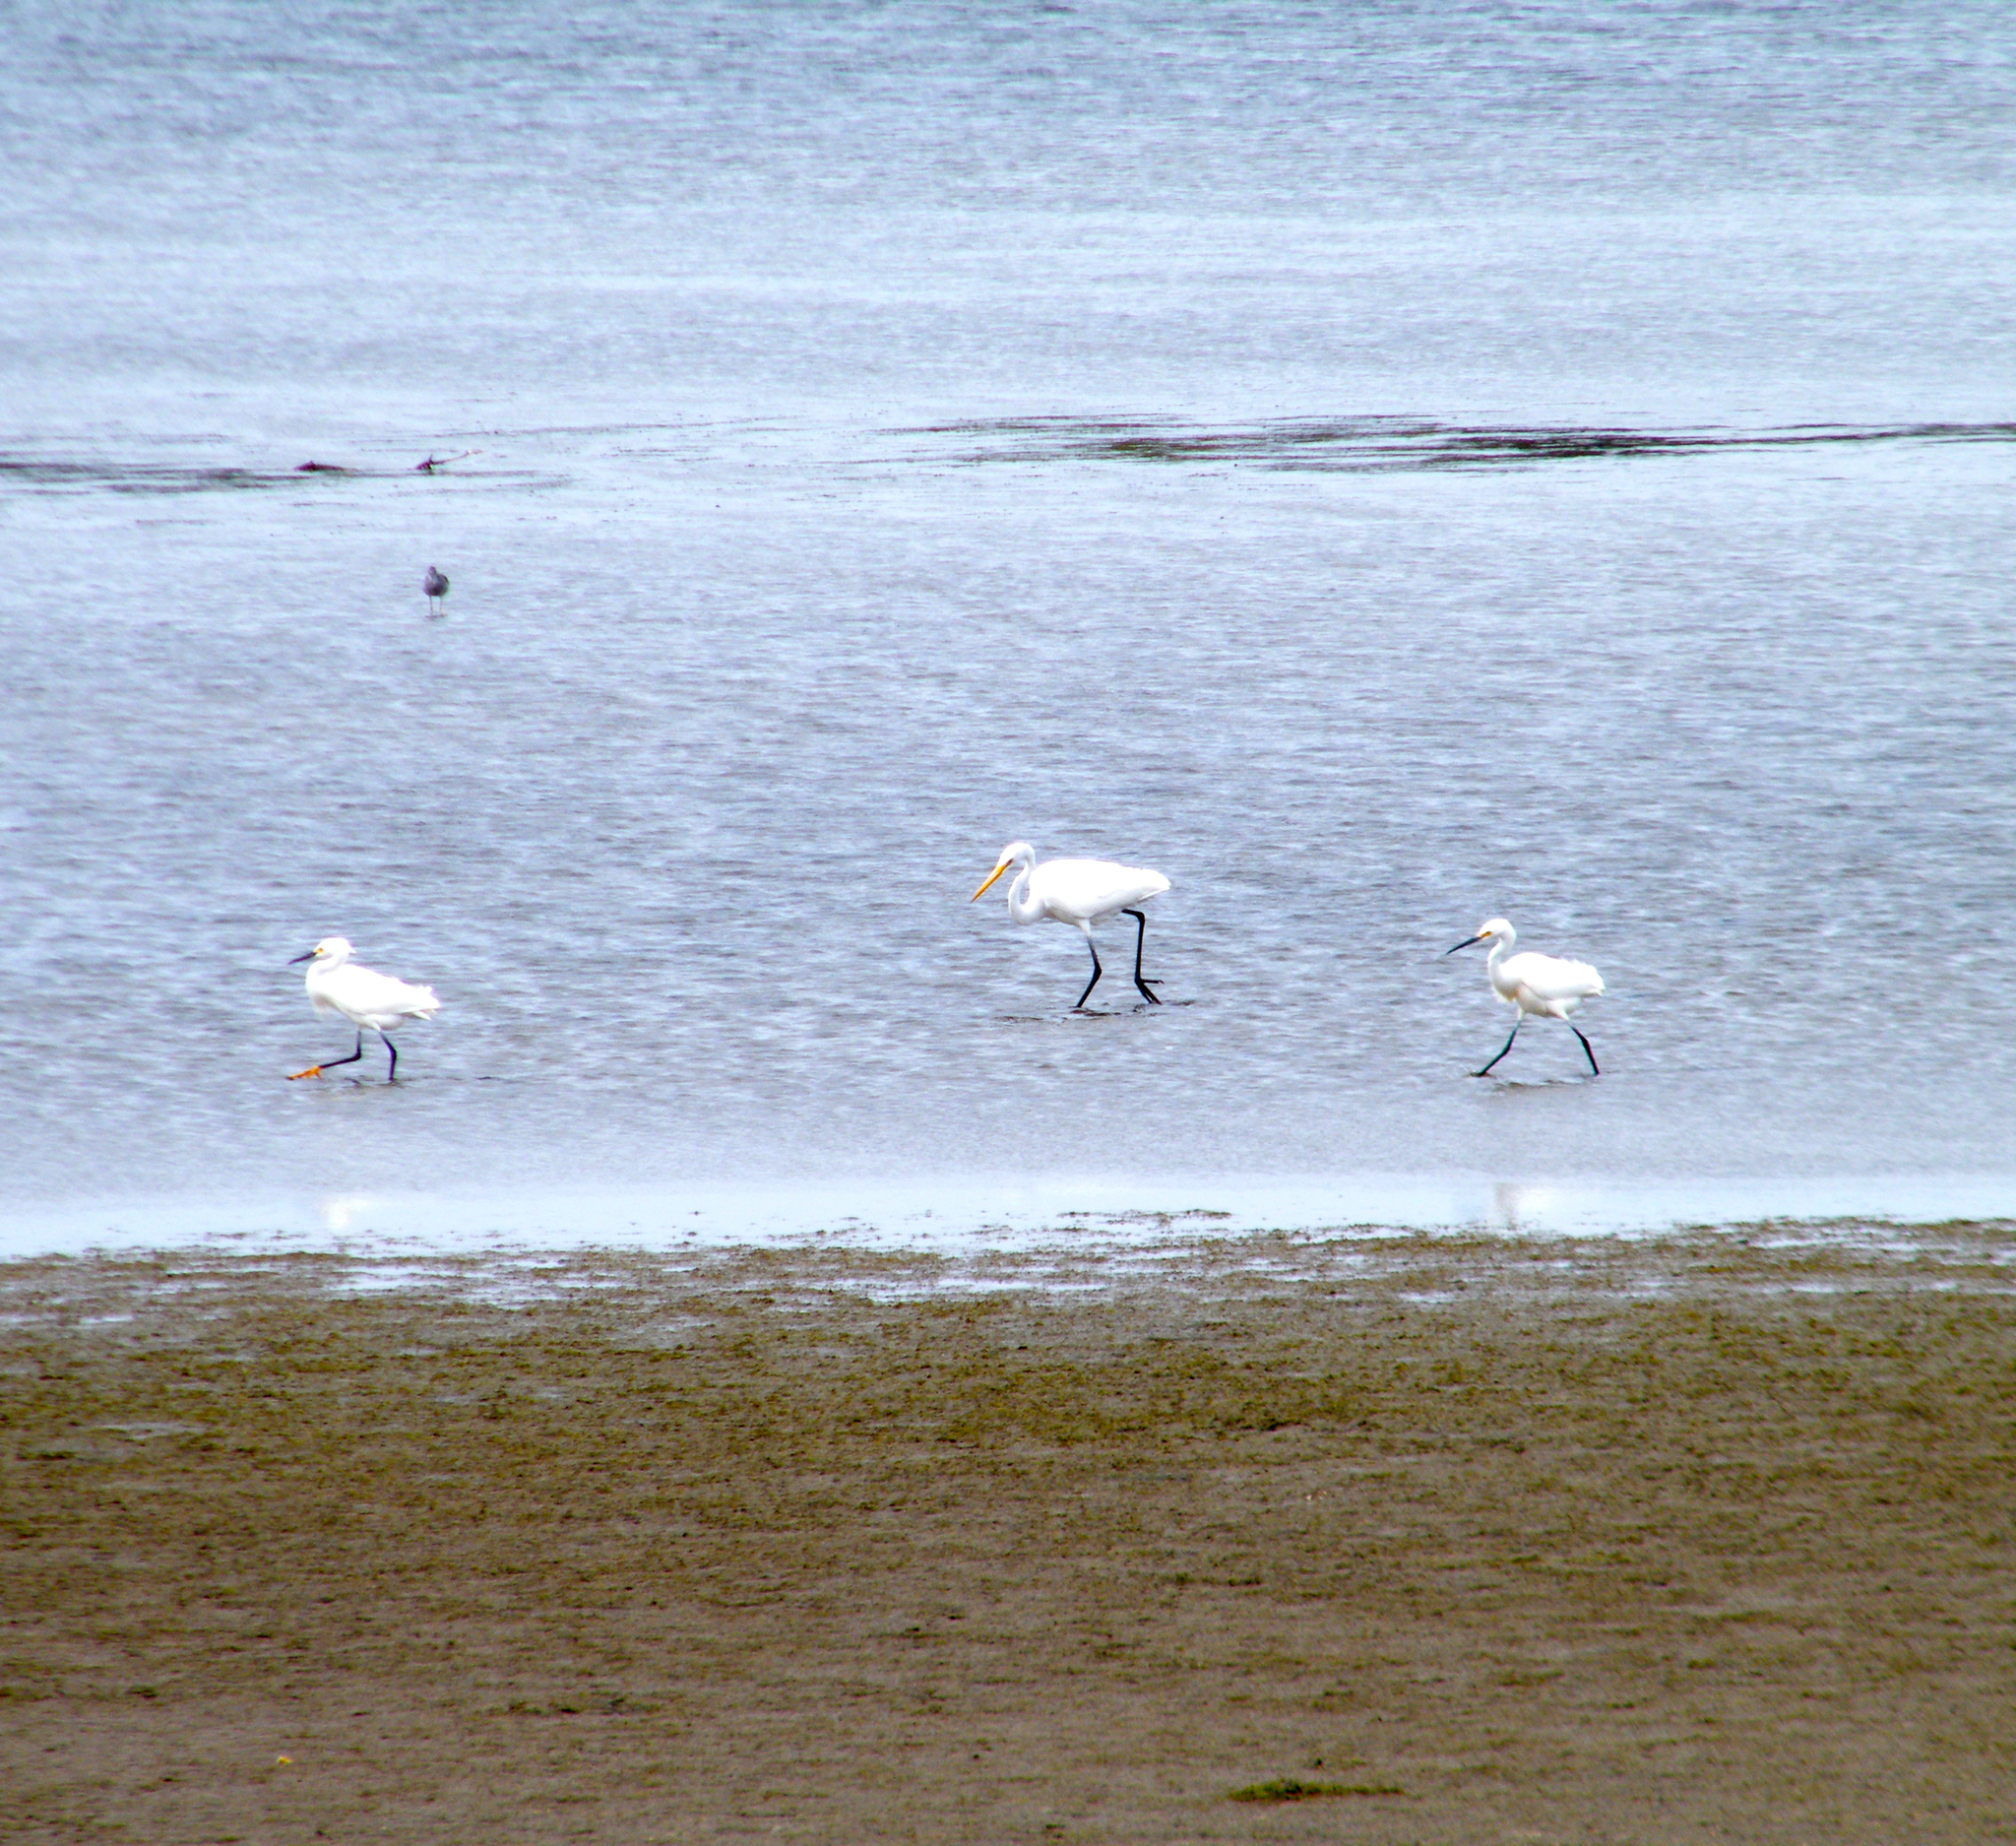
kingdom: Animalia
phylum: Chordata
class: Aves
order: Pelecaniformes
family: Ardeidae
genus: Ardea
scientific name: Ardea alba
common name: Great egret
